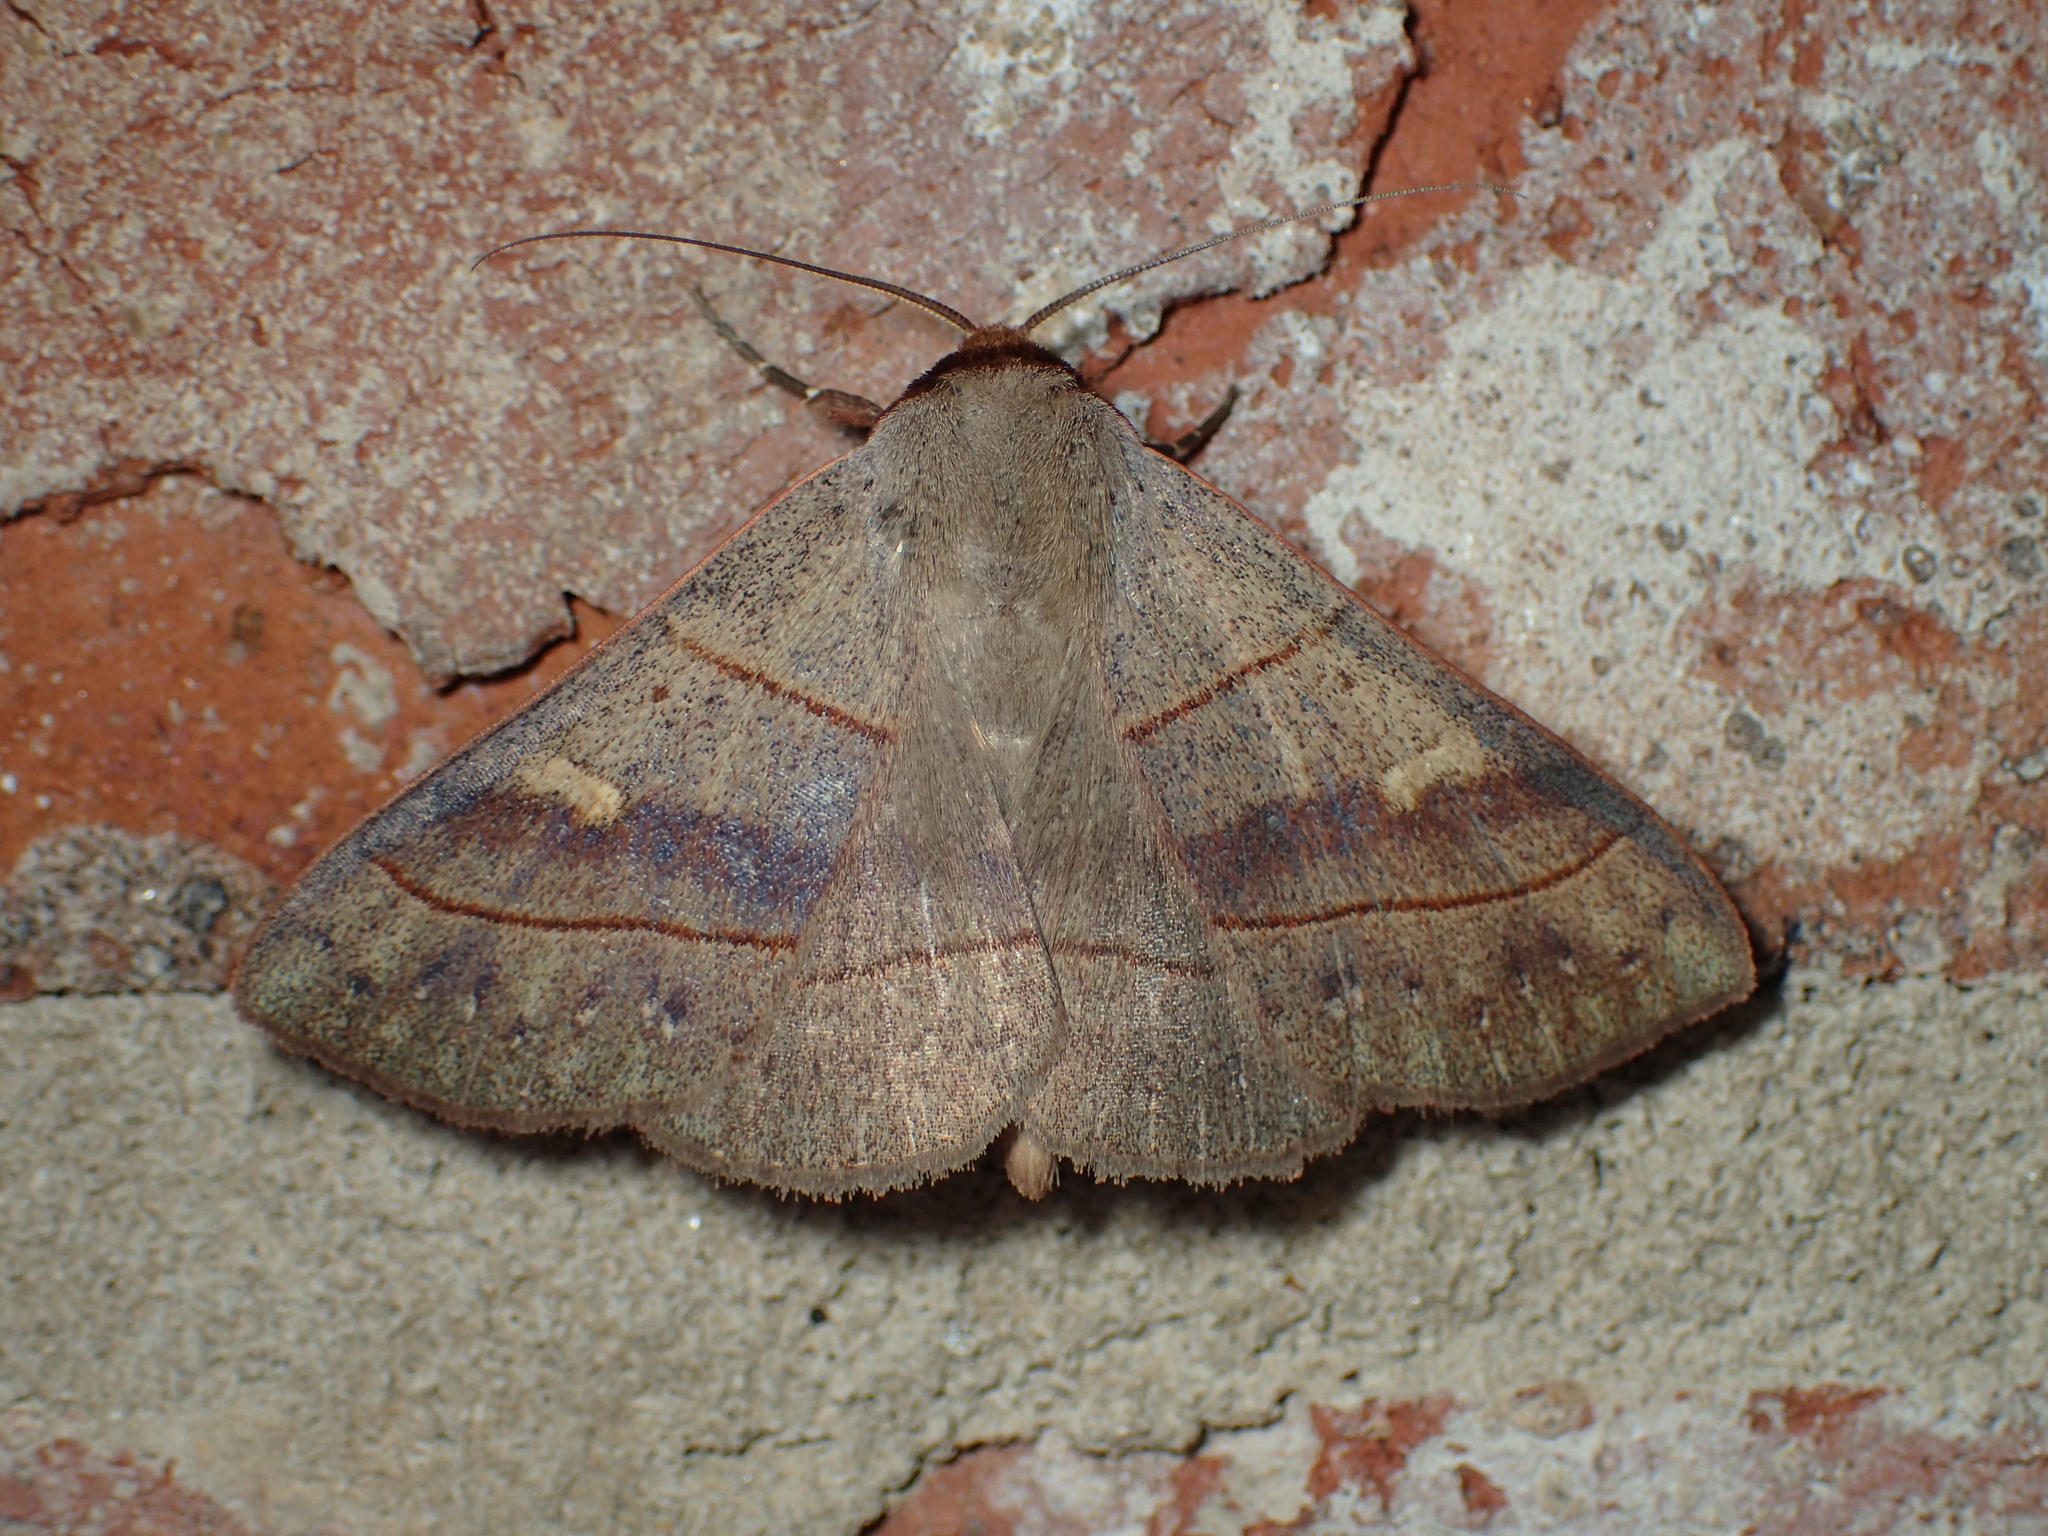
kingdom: Animalia
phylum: Arthropoda
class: Insecta
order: Lepidoptera
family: Erebidae
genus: Panopoda
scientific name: Panopoda rufimargo
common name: Red-lined panopoda moth
